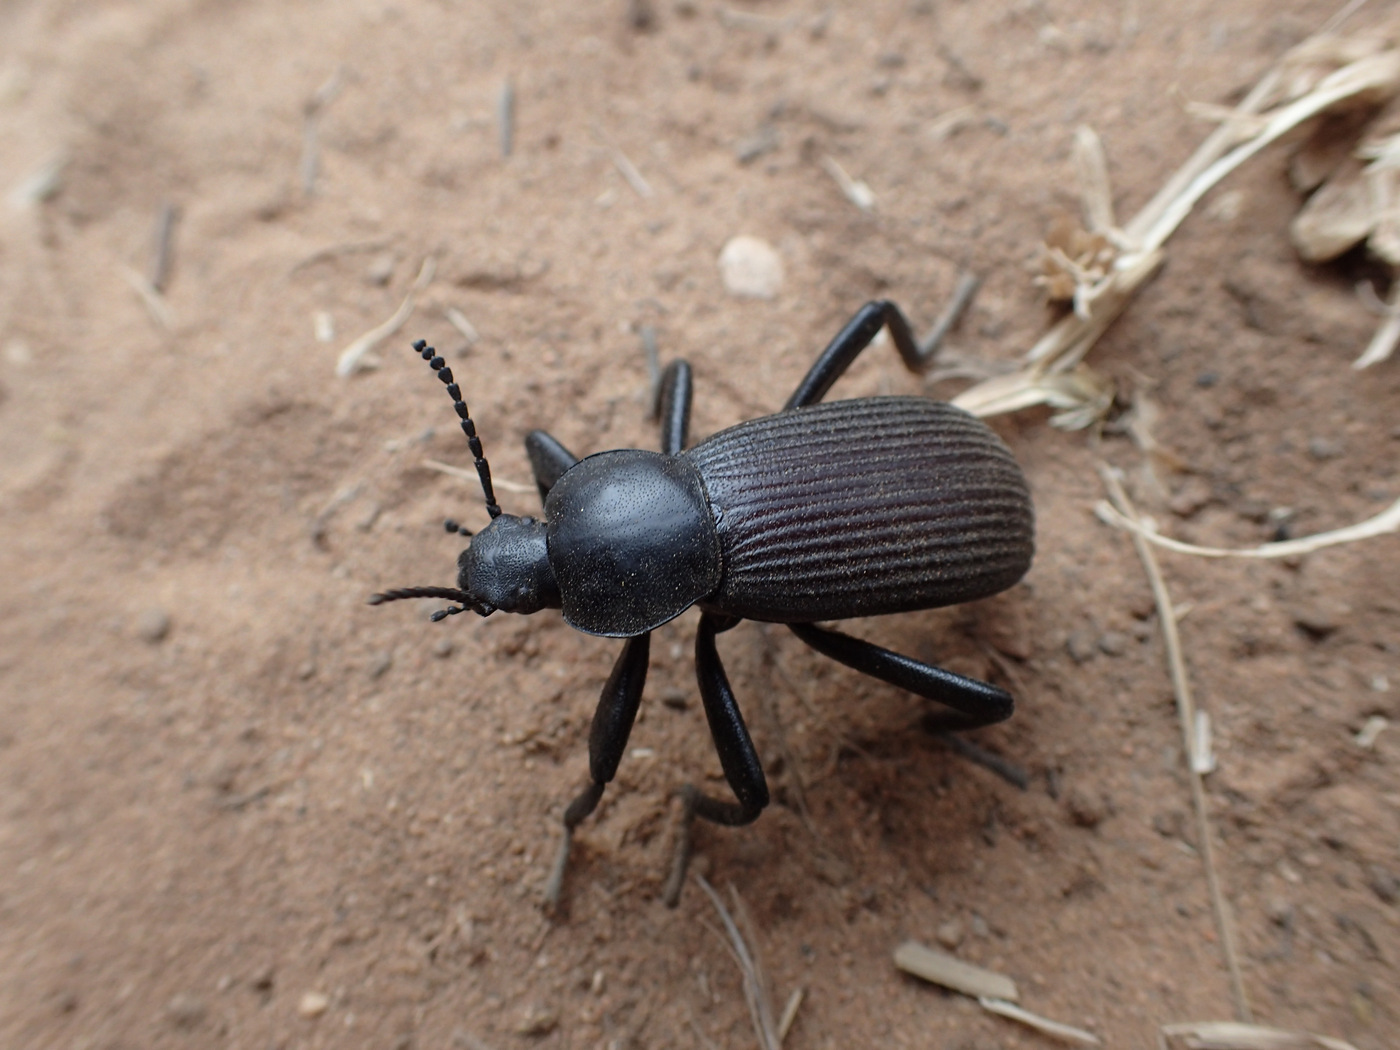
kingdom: Animalia
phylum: Arthropoda
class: Insecta
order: Coleoptera
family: Tenebrionidae
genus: Eleodes
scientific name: Eleodes obscura
